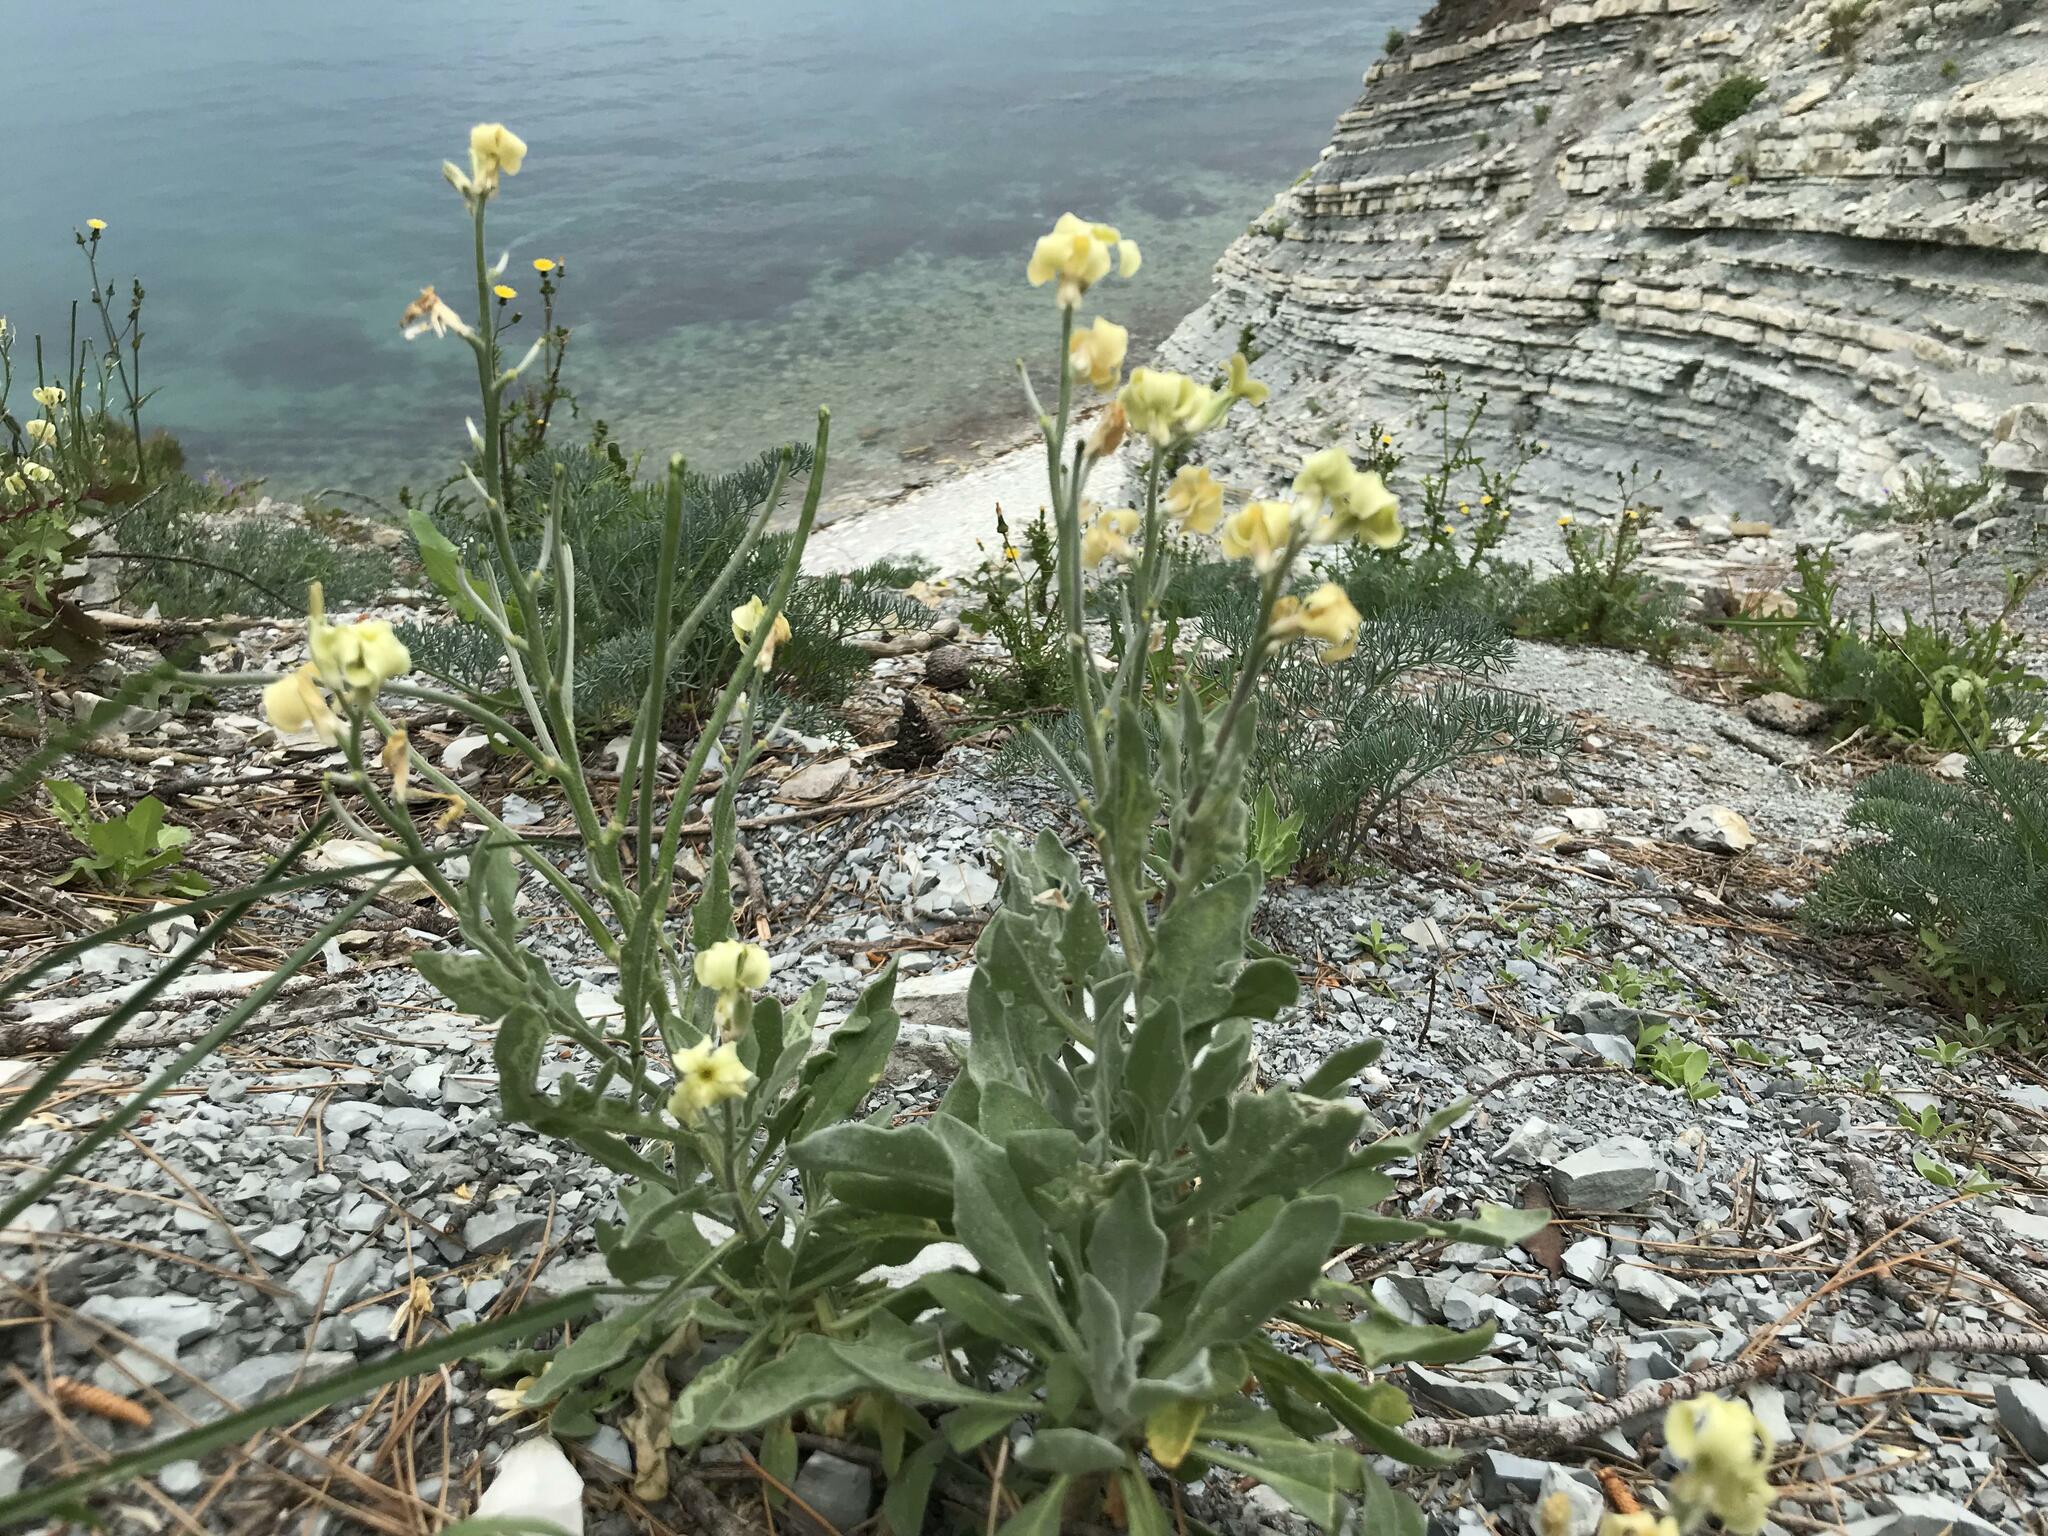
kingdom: Plantae
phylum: Tracheophyta
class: Magnoliopsida
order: Brassicales
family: Brassicaceae
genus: Matthiola
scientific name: Matthiola odoratissima
